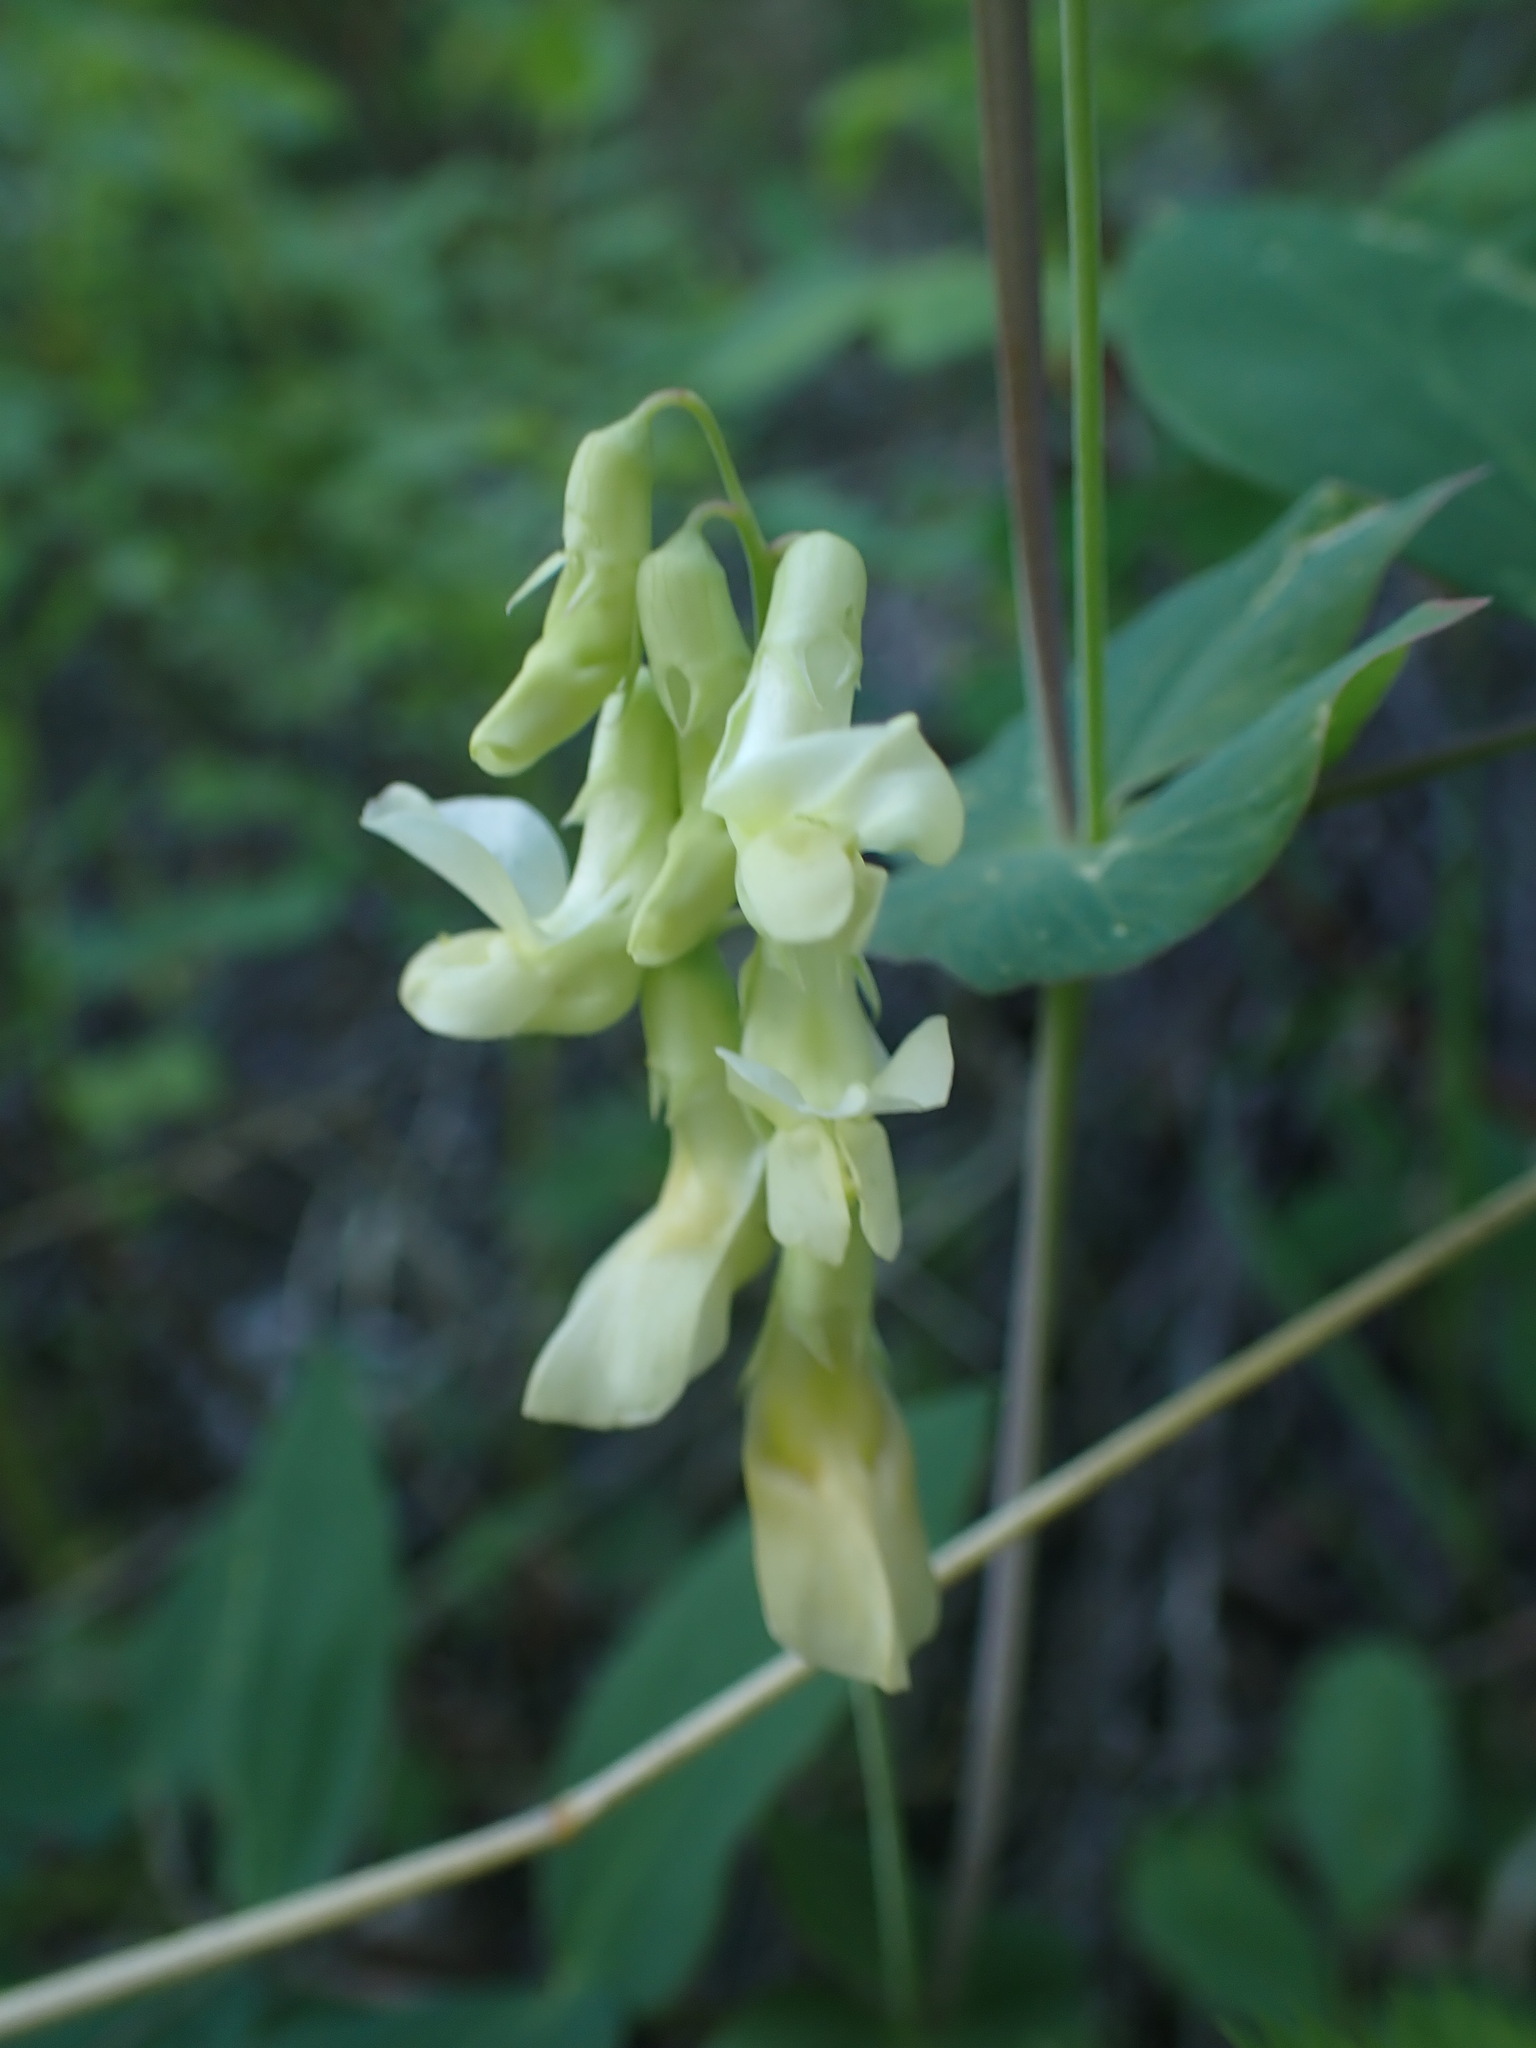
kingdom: Plantae
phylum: Tracheophyta
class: Magnoliopsida
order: Fabales
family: Fabaceae
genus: Lathyrus
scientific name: Lathyrus ochroleucus
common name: Pale vetchling
